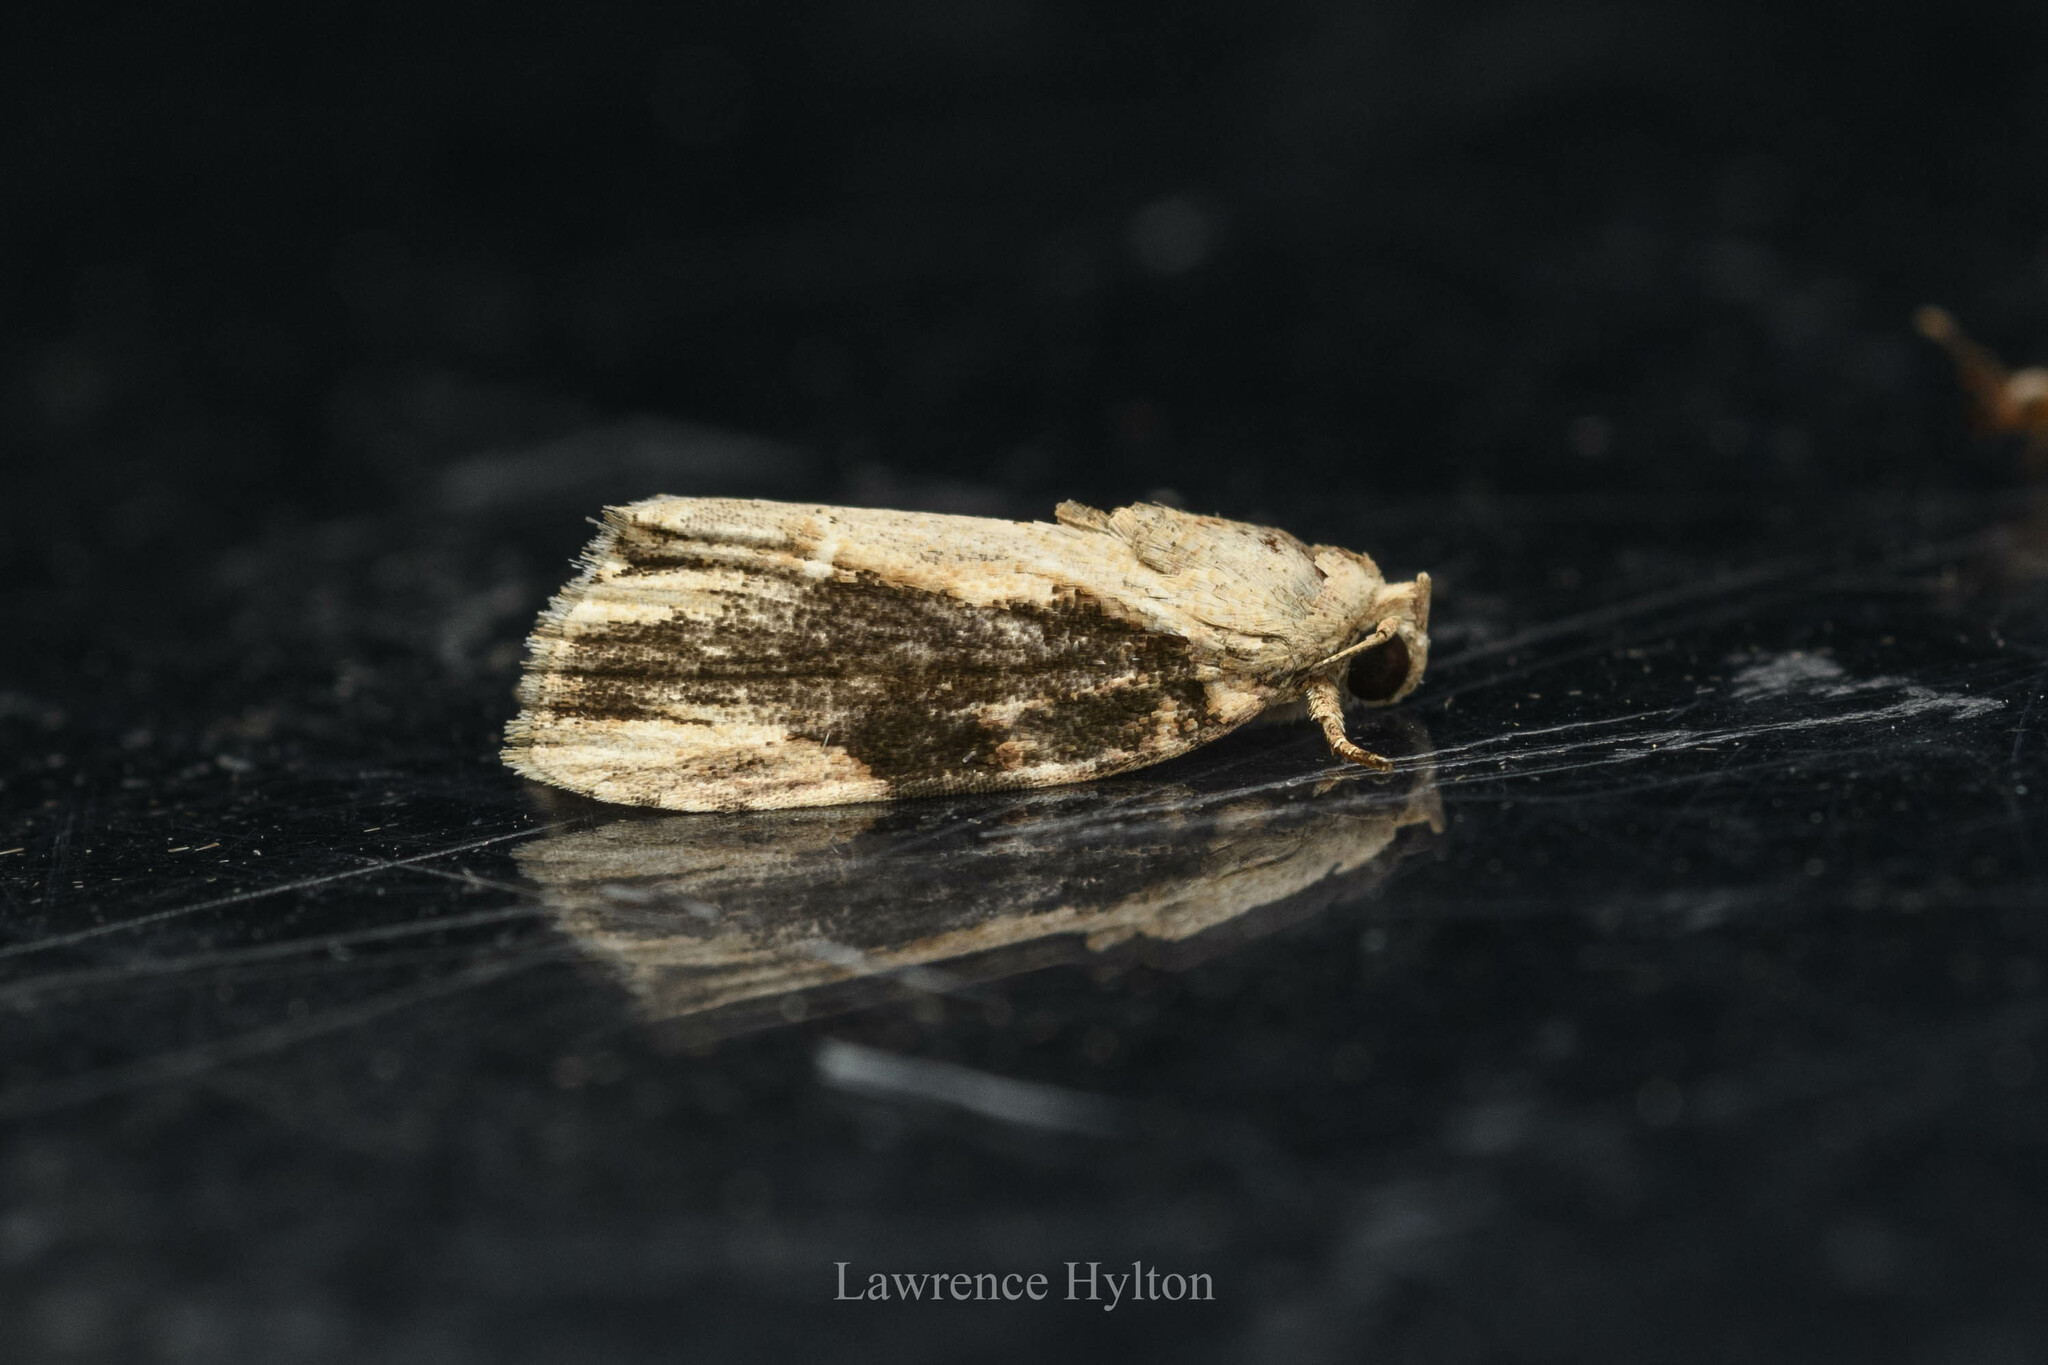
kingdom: Animalia
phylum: Arthropoda
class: Insecta
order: Lepidoptera
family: Nolidae
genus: Etanna
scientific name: Etanna breviuscula
